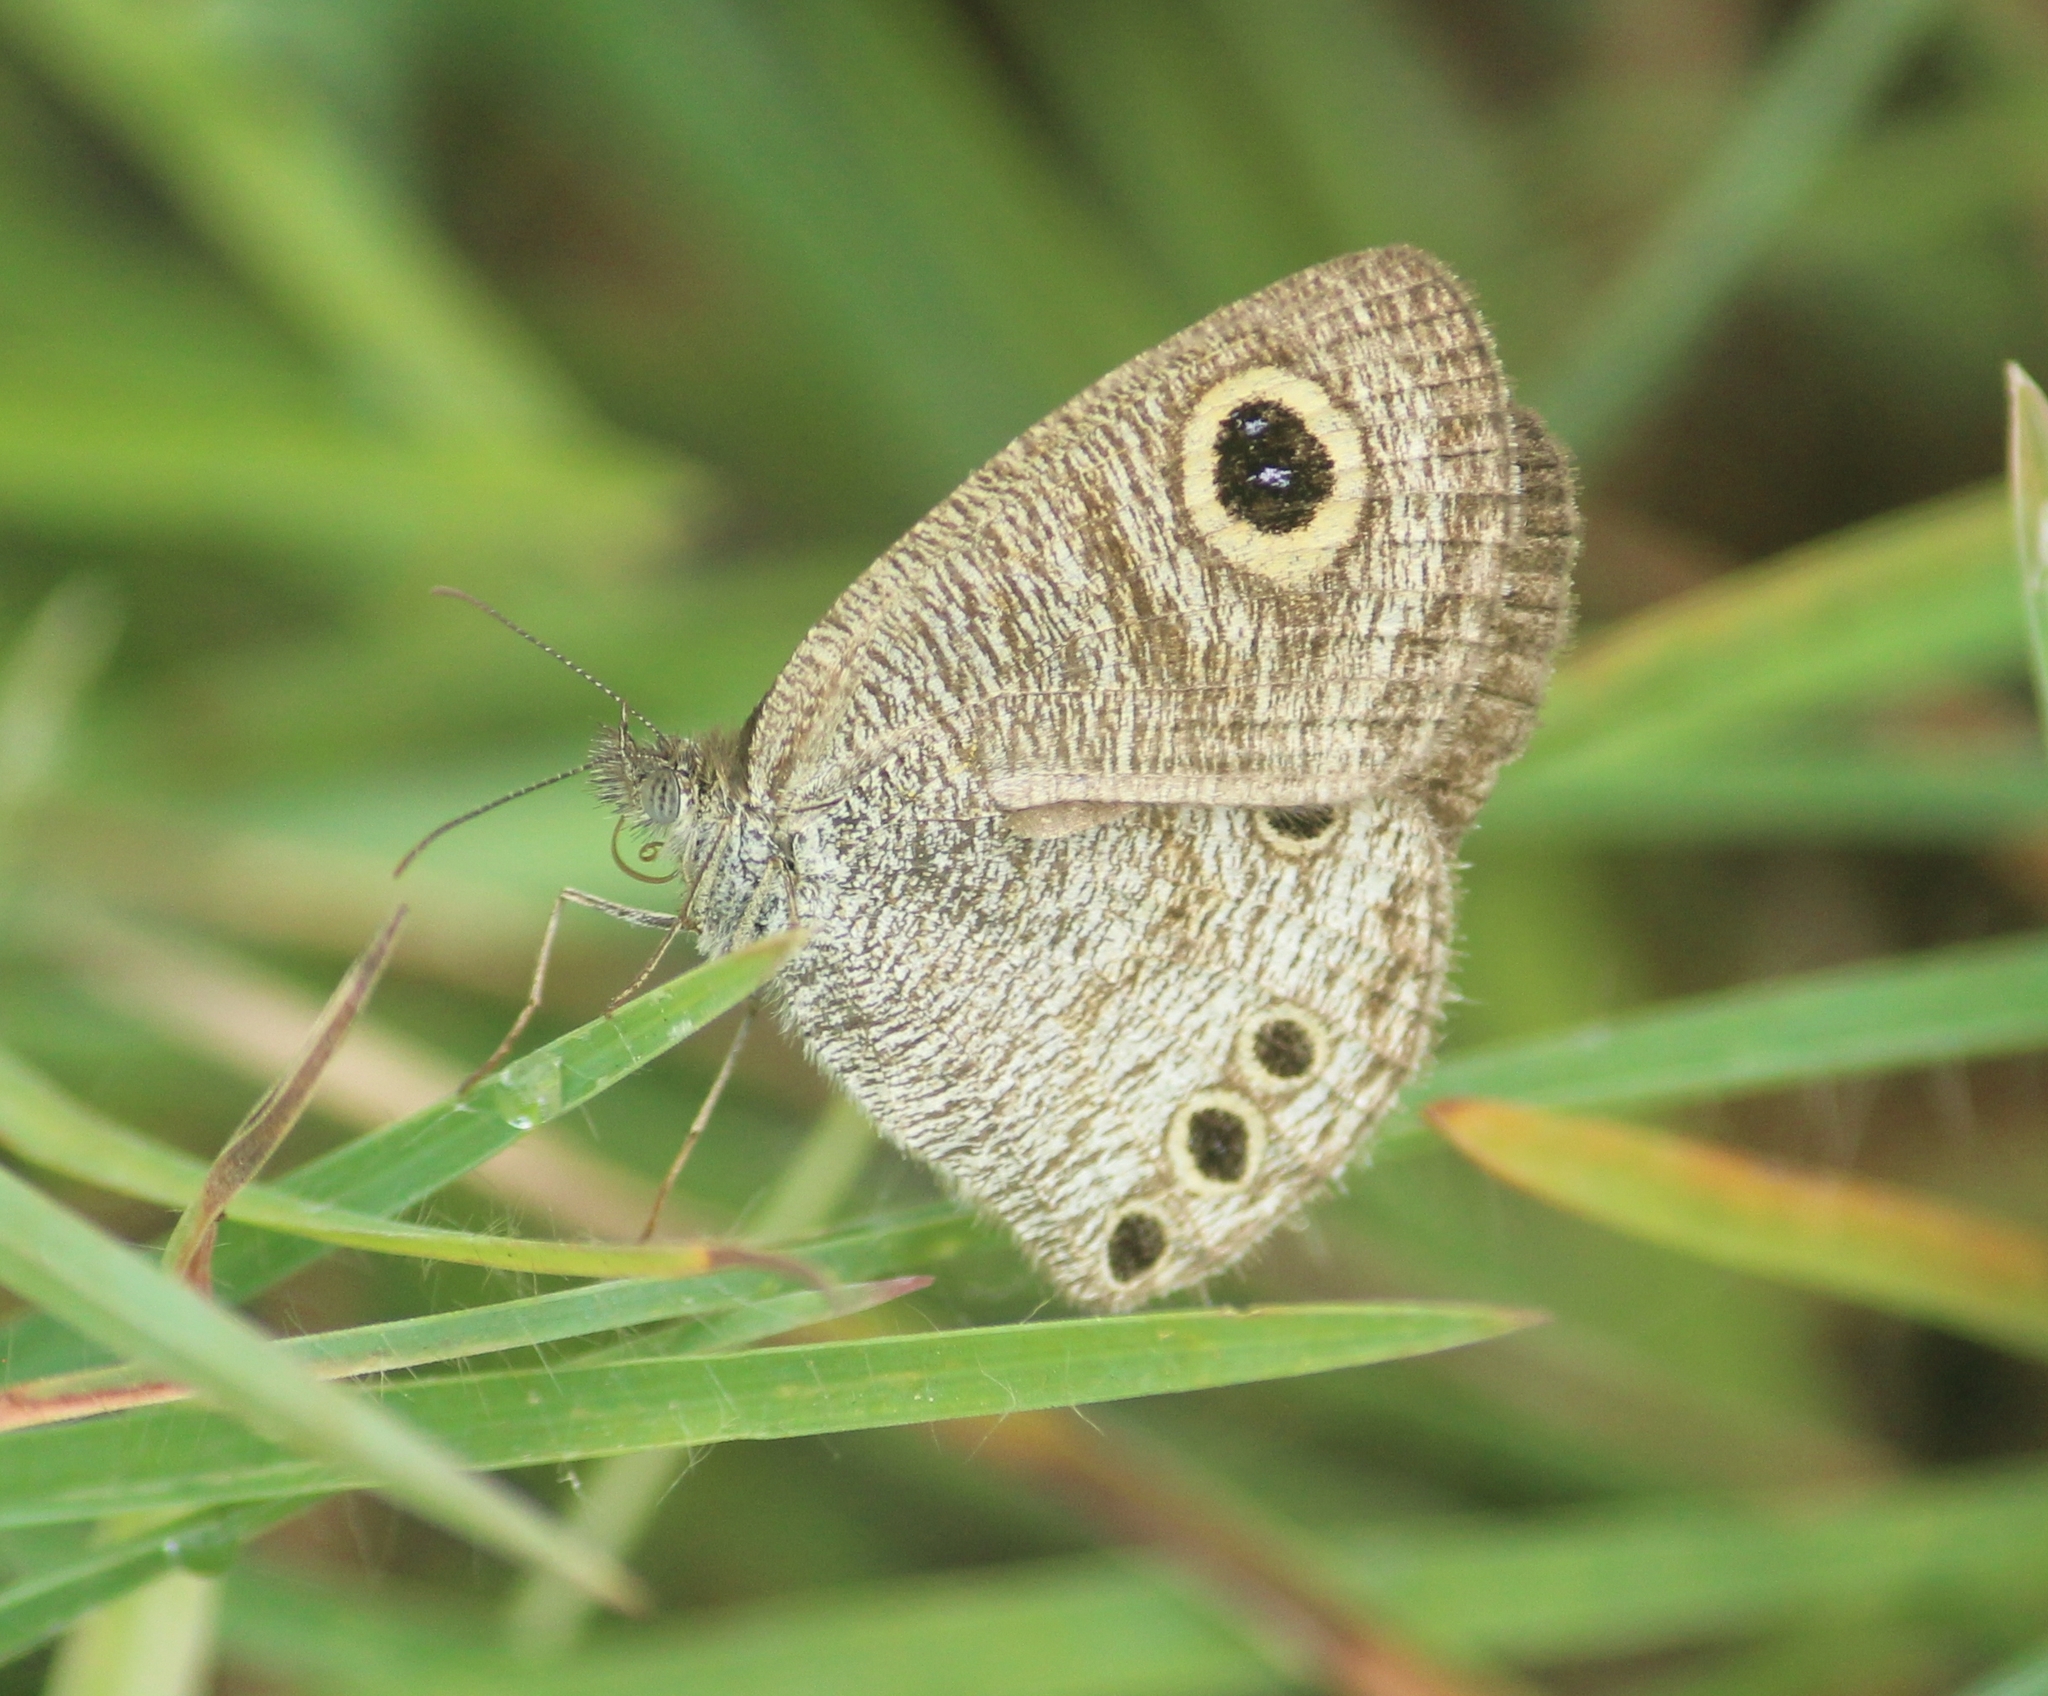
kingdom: Animalia
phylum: Arthropoda
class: Insecta
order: Lepidoptera
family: Nymphalidae
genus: Ypthima
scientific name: Ypthima huebneri
